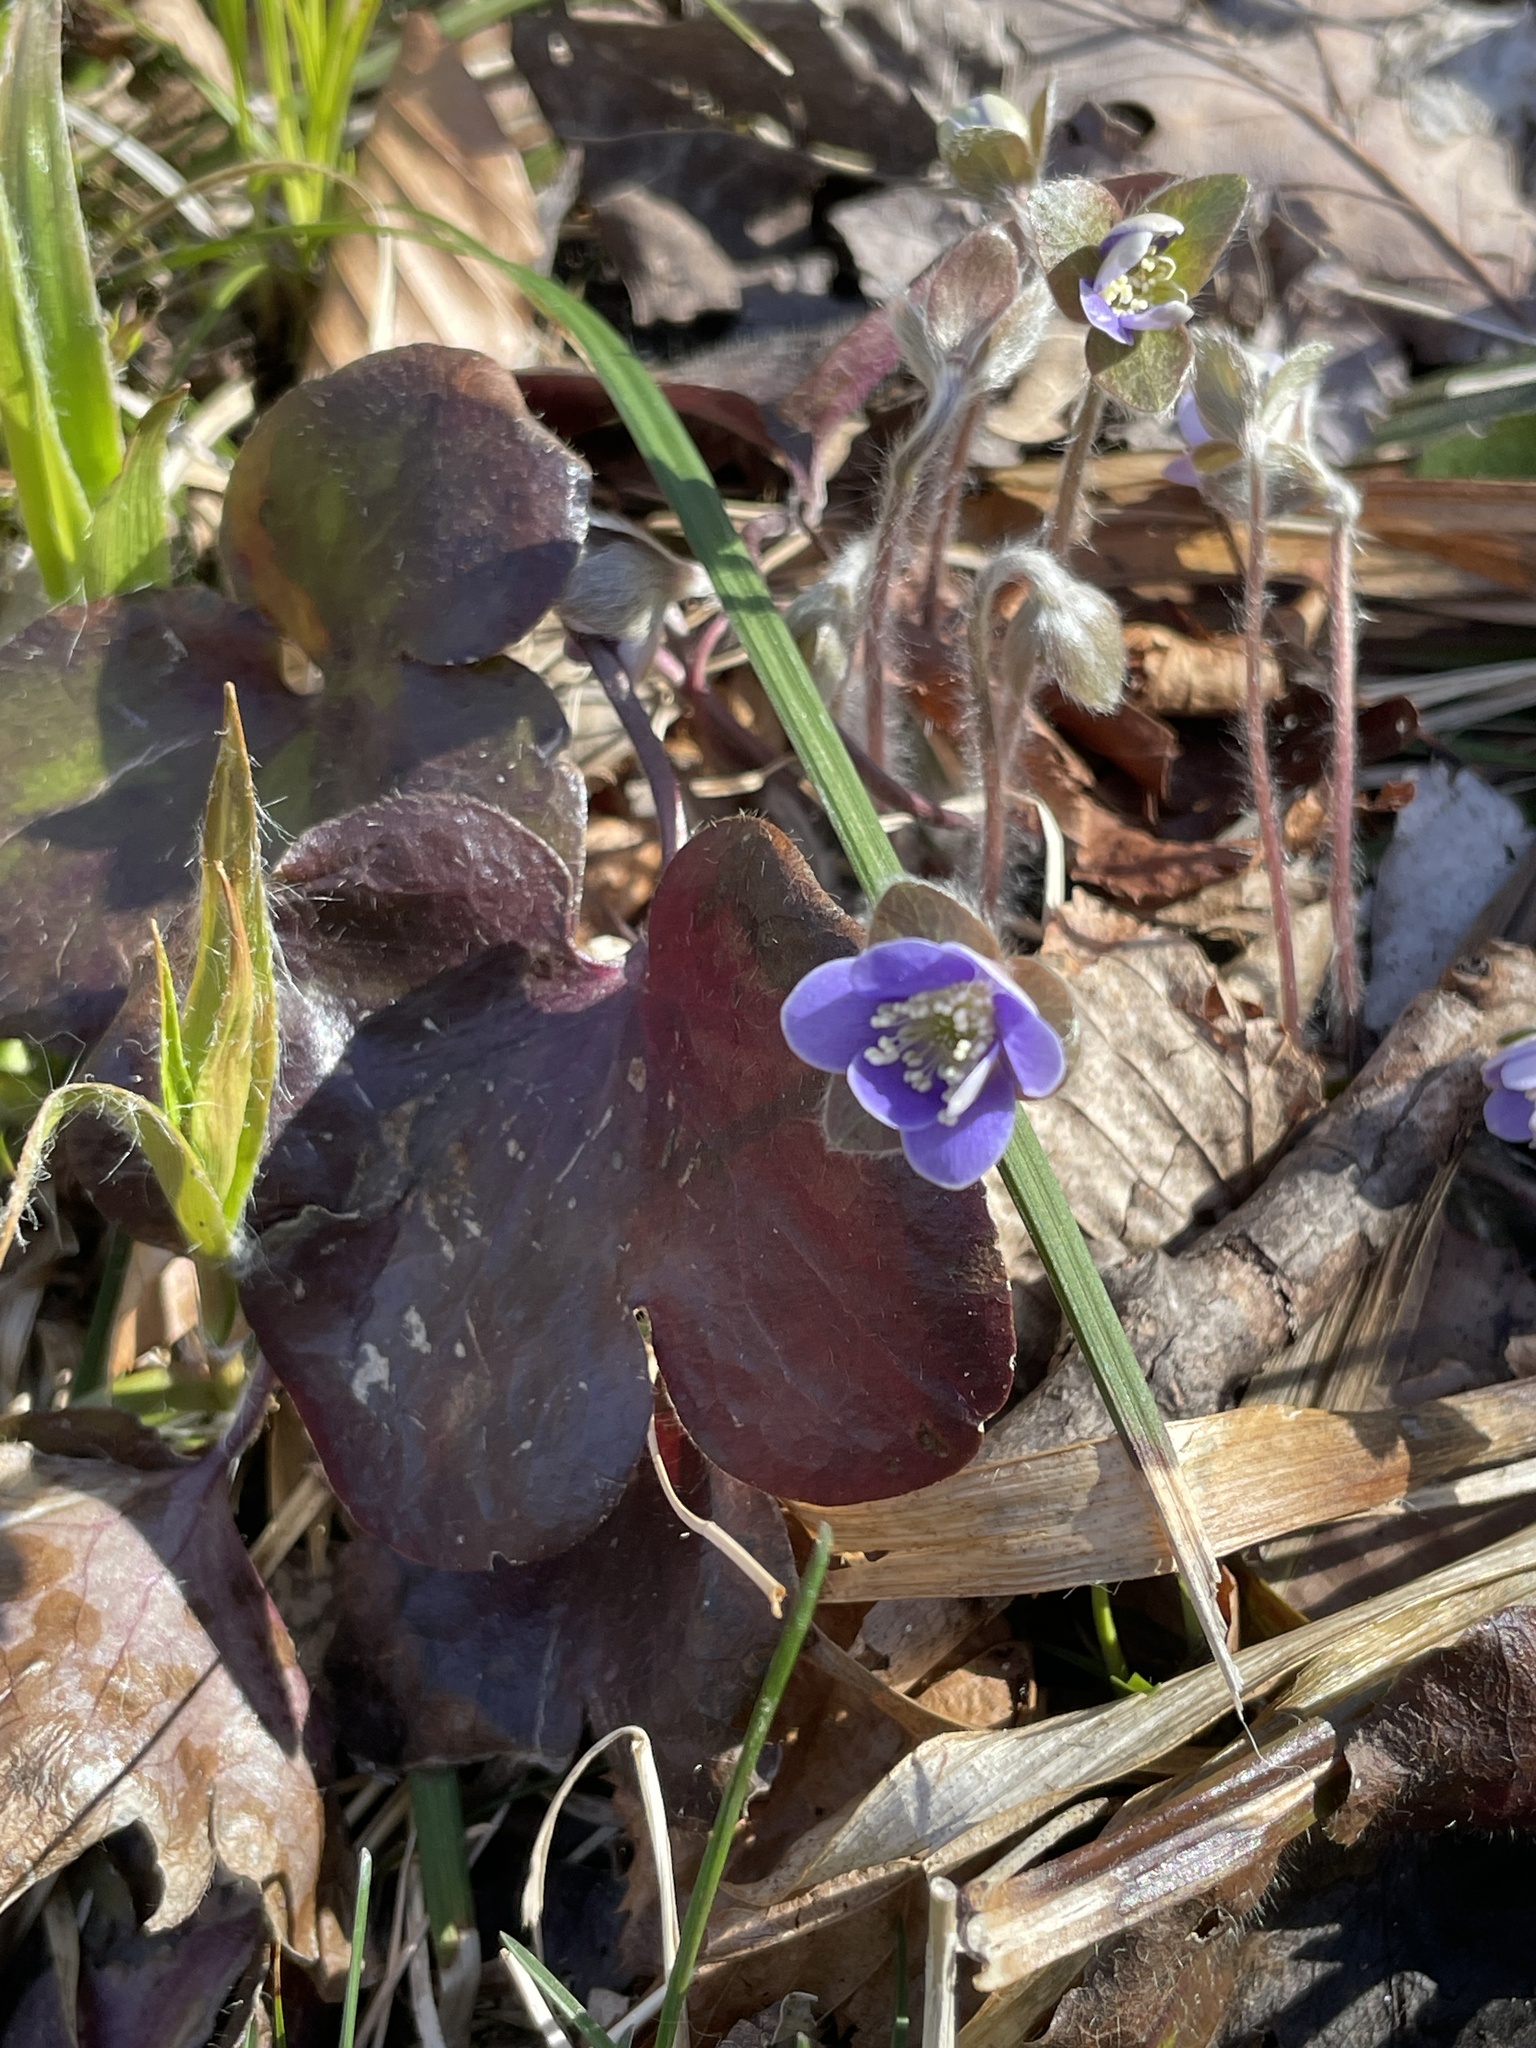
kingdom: Plantae
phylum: Tracheophyta
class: Magnoliopsida
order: Ranunculales
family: Ranunculaceae
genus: Hepatica
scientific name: Hepatica americana
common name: American hepatica
